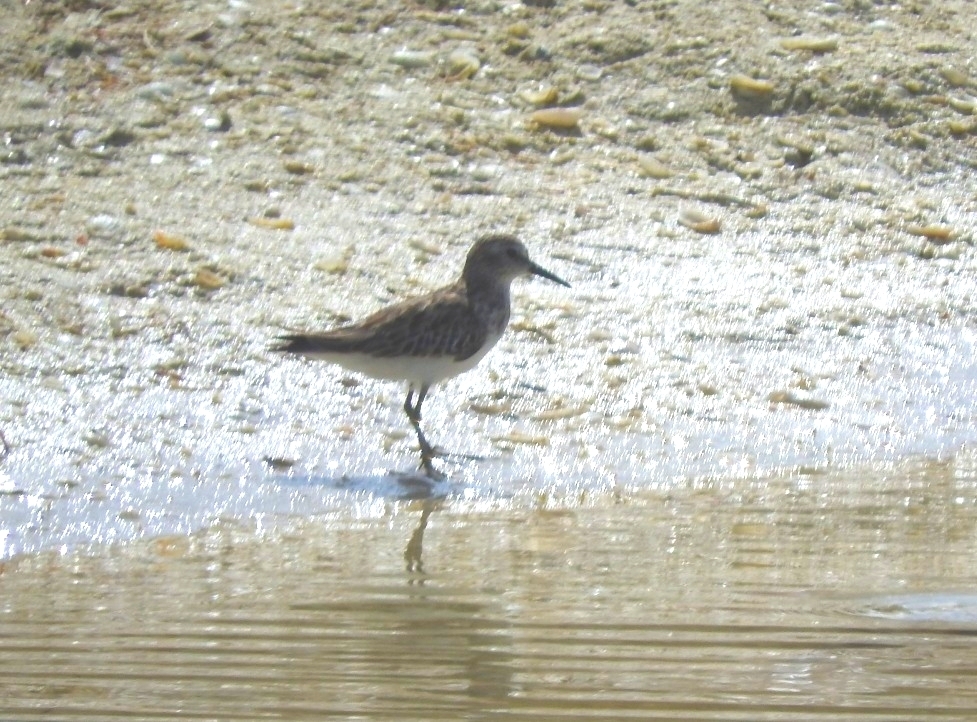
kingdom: Animalia
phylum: Chordata
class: Aves
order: Charadriiformes
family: Scolopacidae
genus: Calidris
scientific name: Calidris minutilla
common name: Least sandpiper
